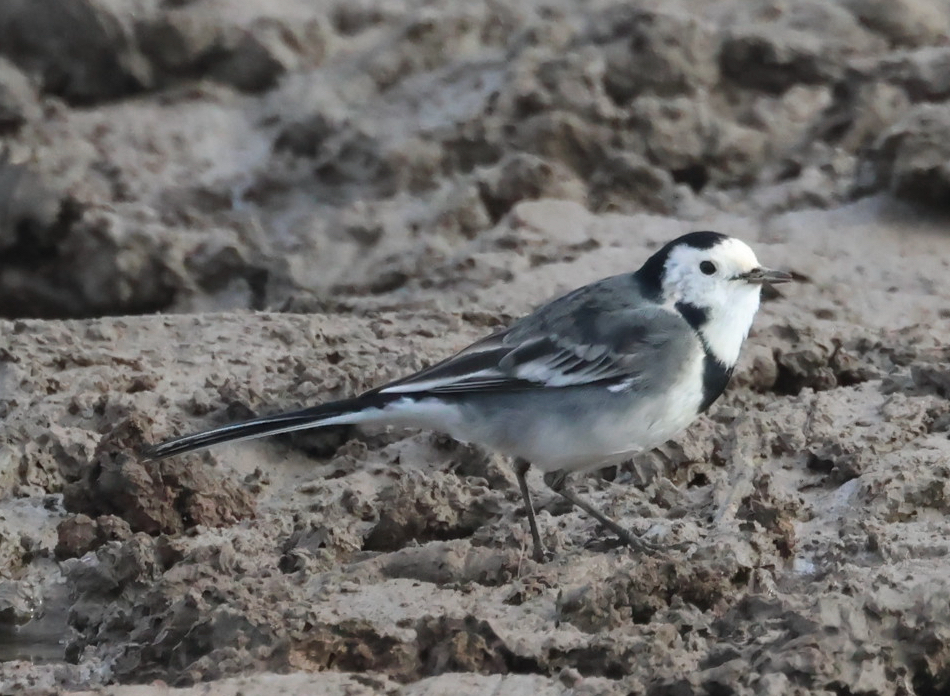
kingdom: Animalia
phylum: Chordata
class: Aves
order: Passeriformes
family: Motacillidae
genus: Motacilla
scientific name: Motacilla alba
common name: White wagtail
